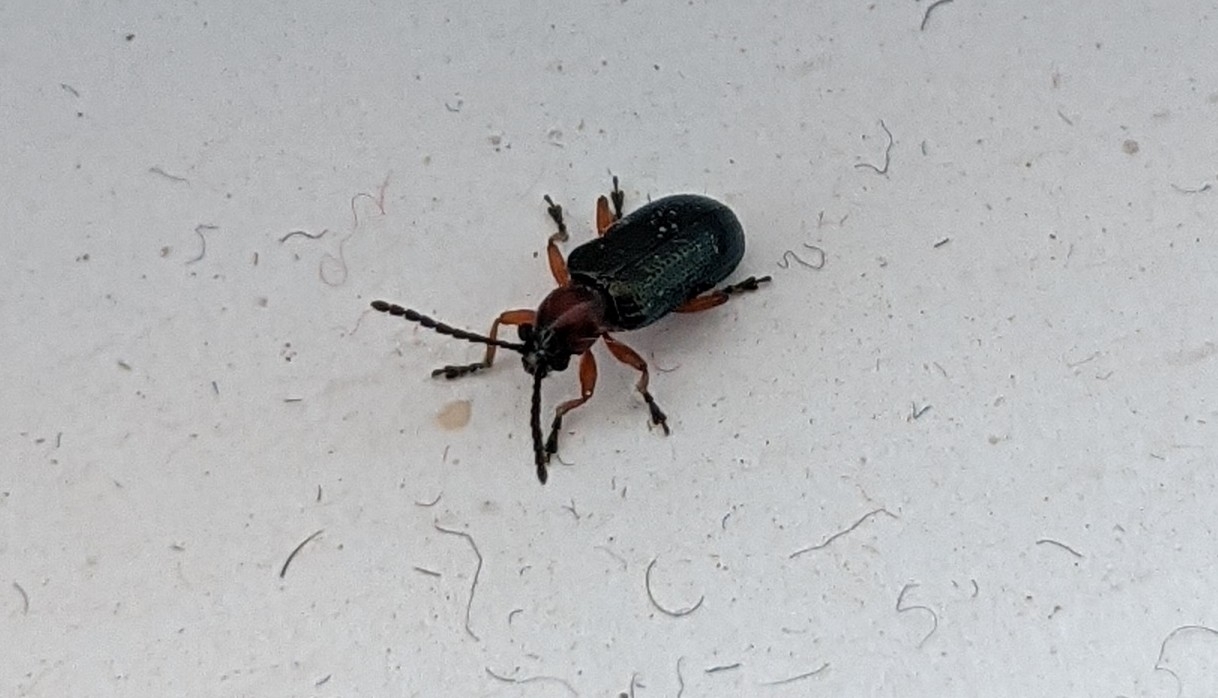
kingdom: Animalia
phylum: Arthropoda
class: Insecta
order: Coleoptera
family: Chrysomelidae
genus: Oulema
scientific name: Oulema
